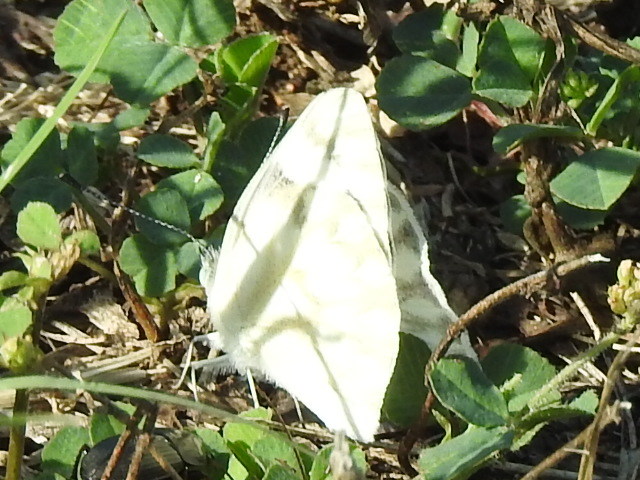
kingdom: Animalia
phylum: Arthropoda
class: Insecta
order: Lepidoptera
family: Pieridae
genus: Pontia
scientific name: Pontia protodice
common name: Checkered white
